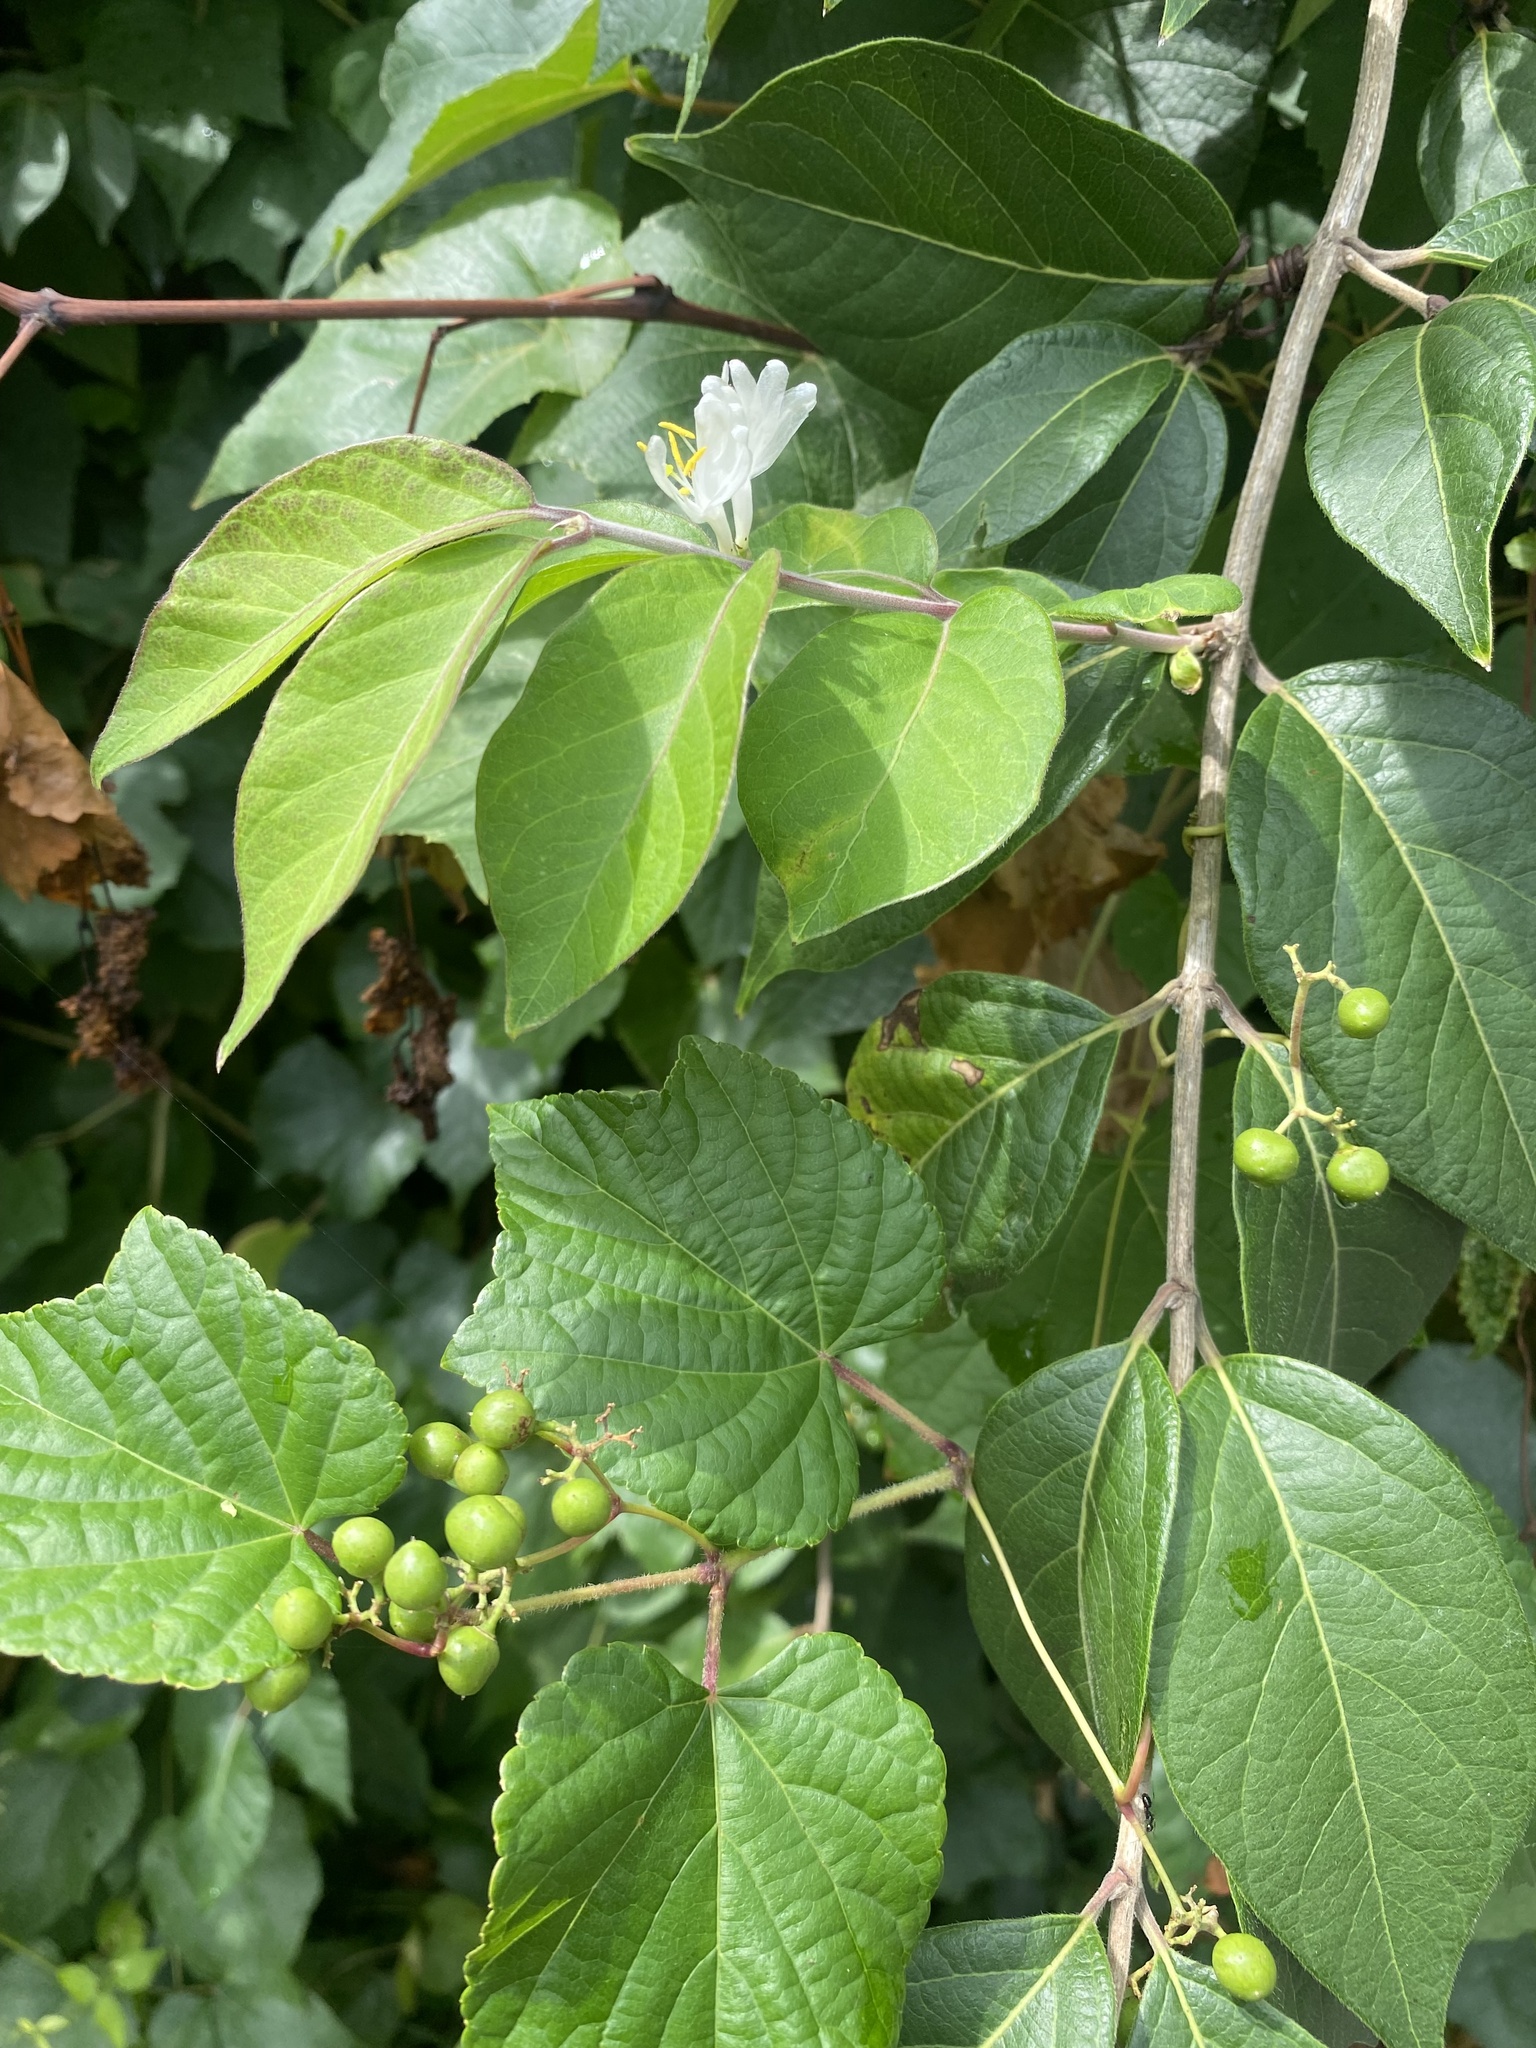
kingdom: Plantae
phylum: Tracheophyta
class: Magnoliopsida
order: Dipsacales
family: Caprifoliaceae
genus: Lonicera
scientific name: Lonicera maackii
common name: Amur honeysuckle
